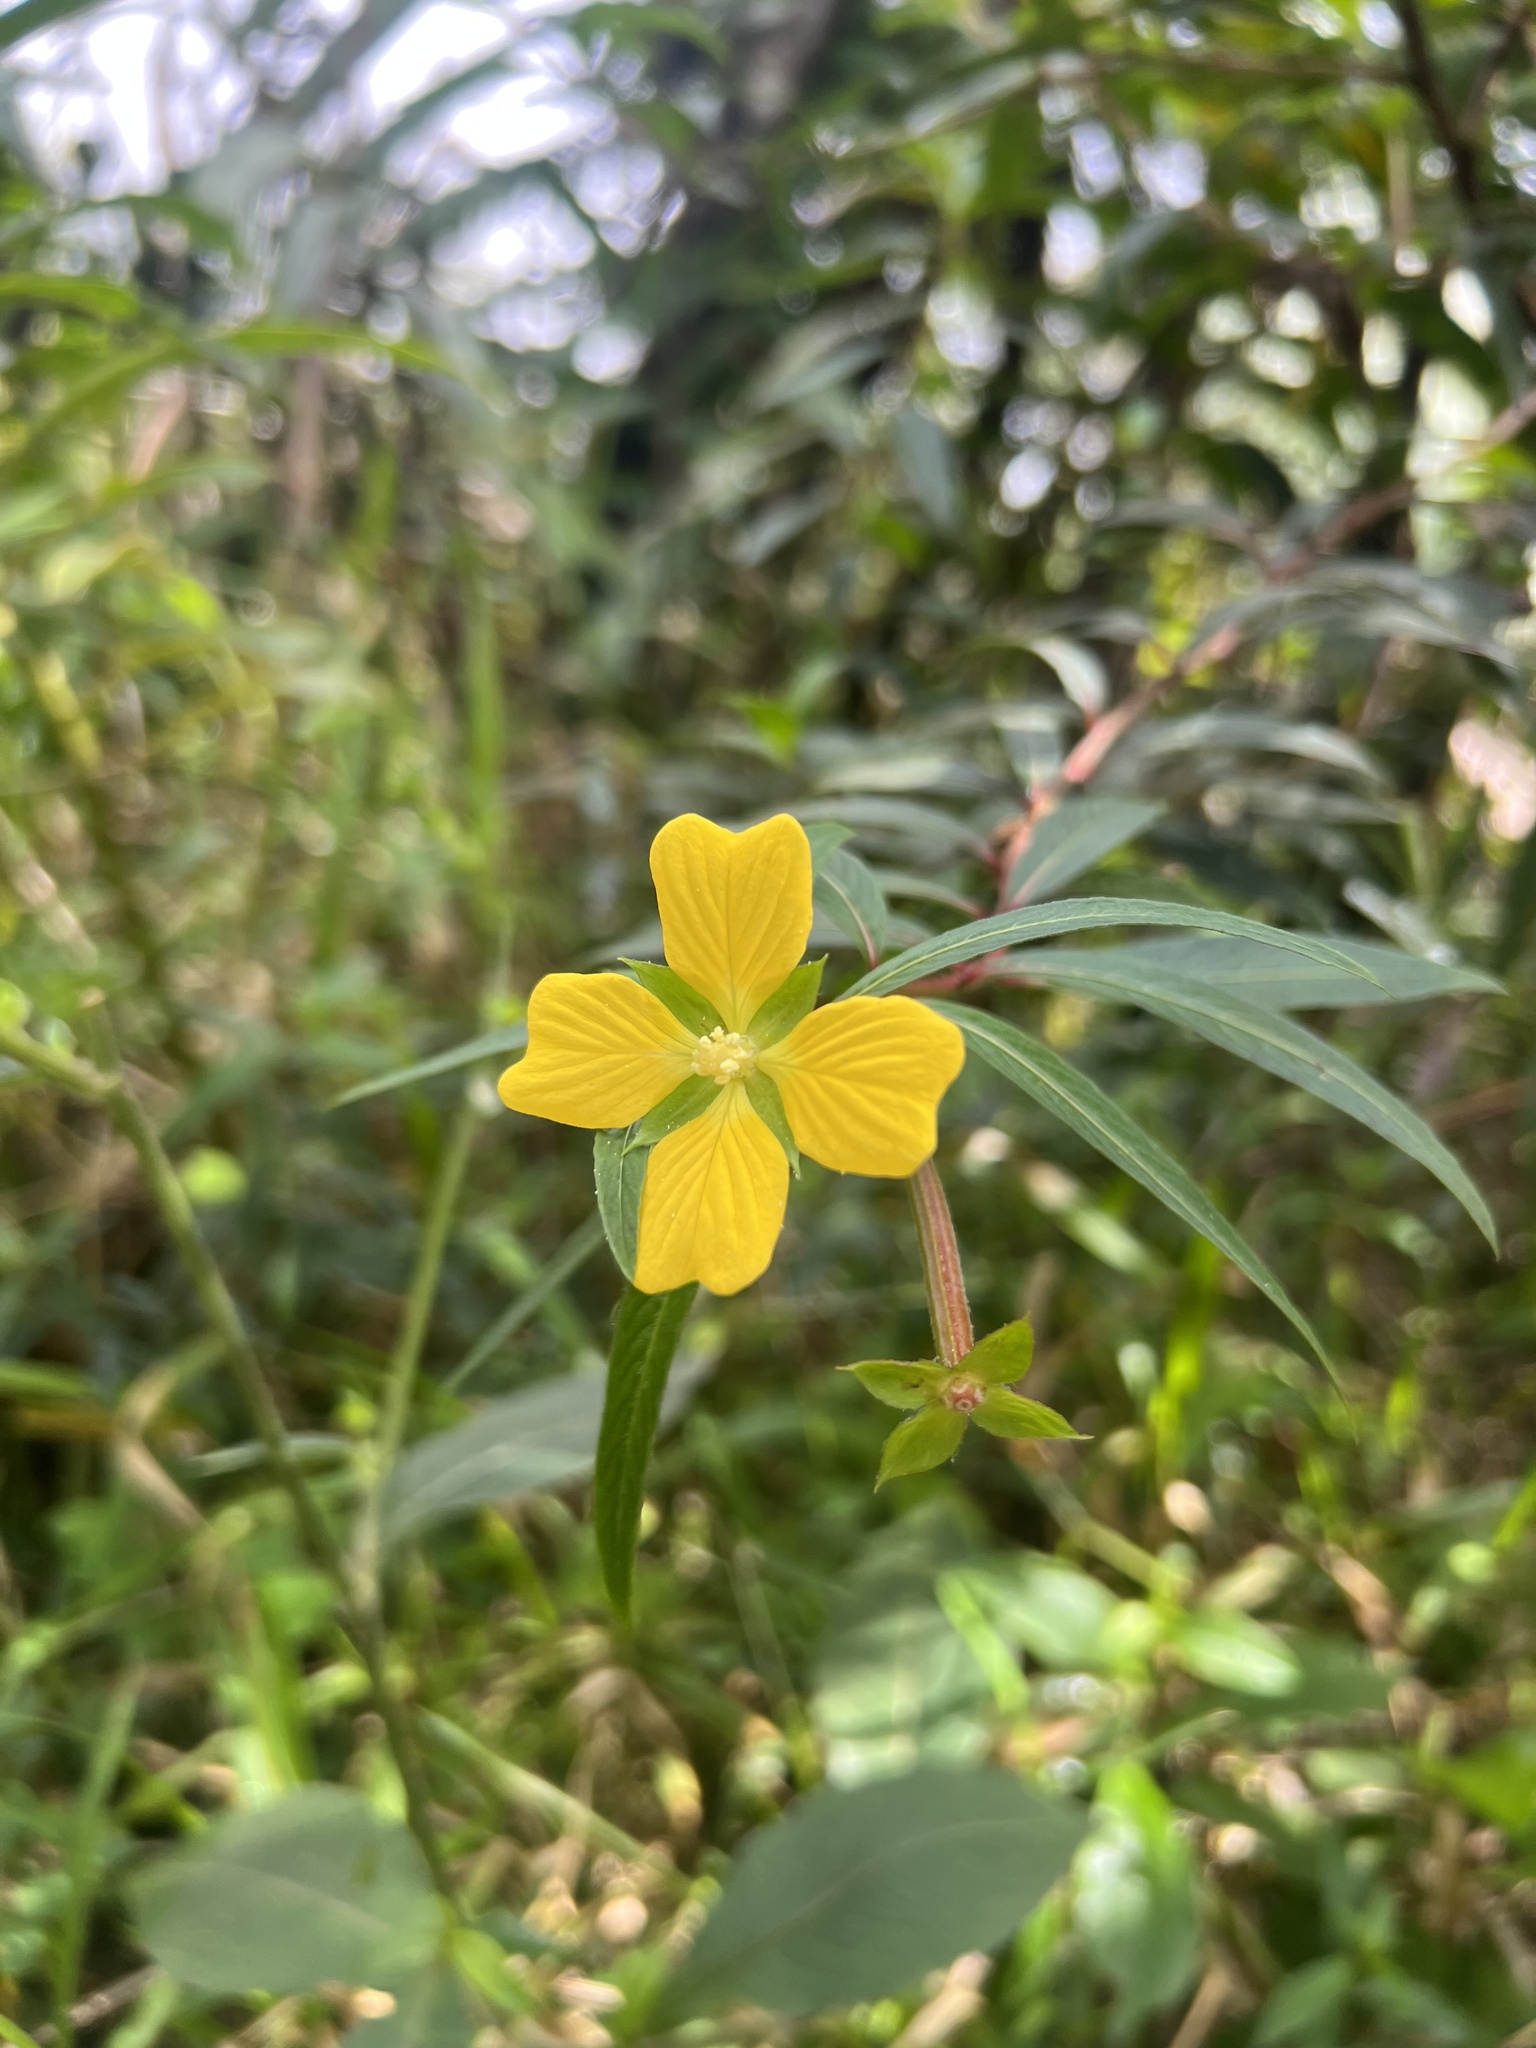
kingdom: Plantae
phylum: Tracheophyta
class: Magnoliopsida
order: Myrtales
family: Onagraceae
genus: Ludwigia
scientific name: Ludwigia octovalvis
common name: Water-primrose
